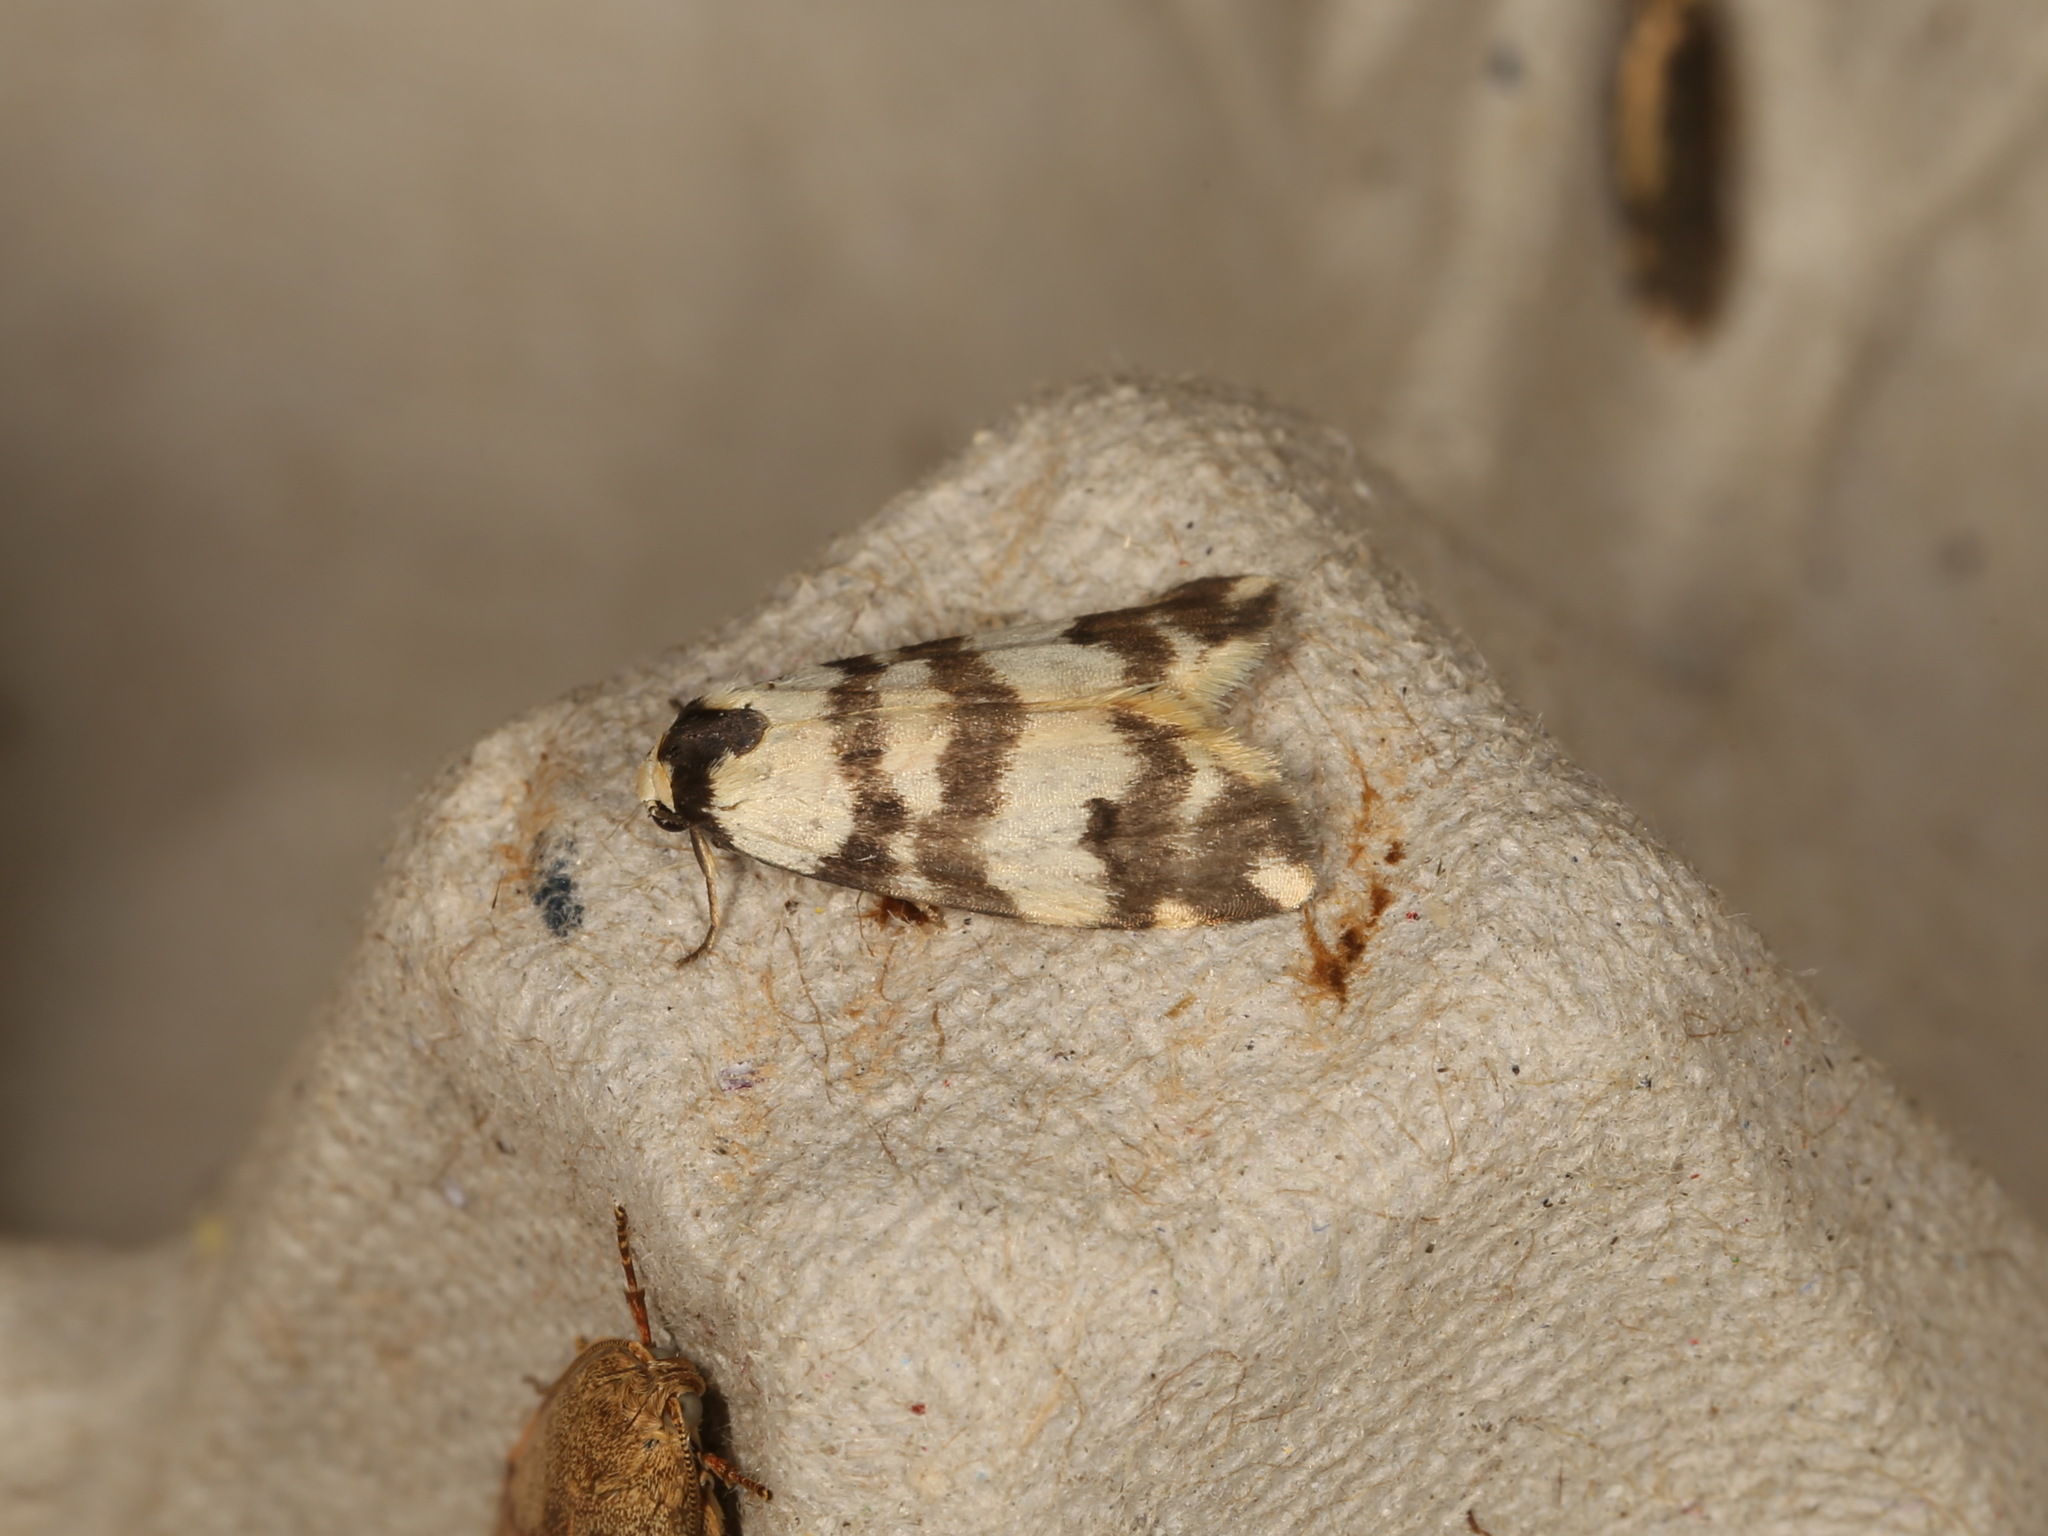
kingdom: Animalia
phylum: Arthropoda
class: Insecta
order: Lepidoptera
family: Erebidae
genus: Thallarcha
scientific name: Thallarcha trissomochla
